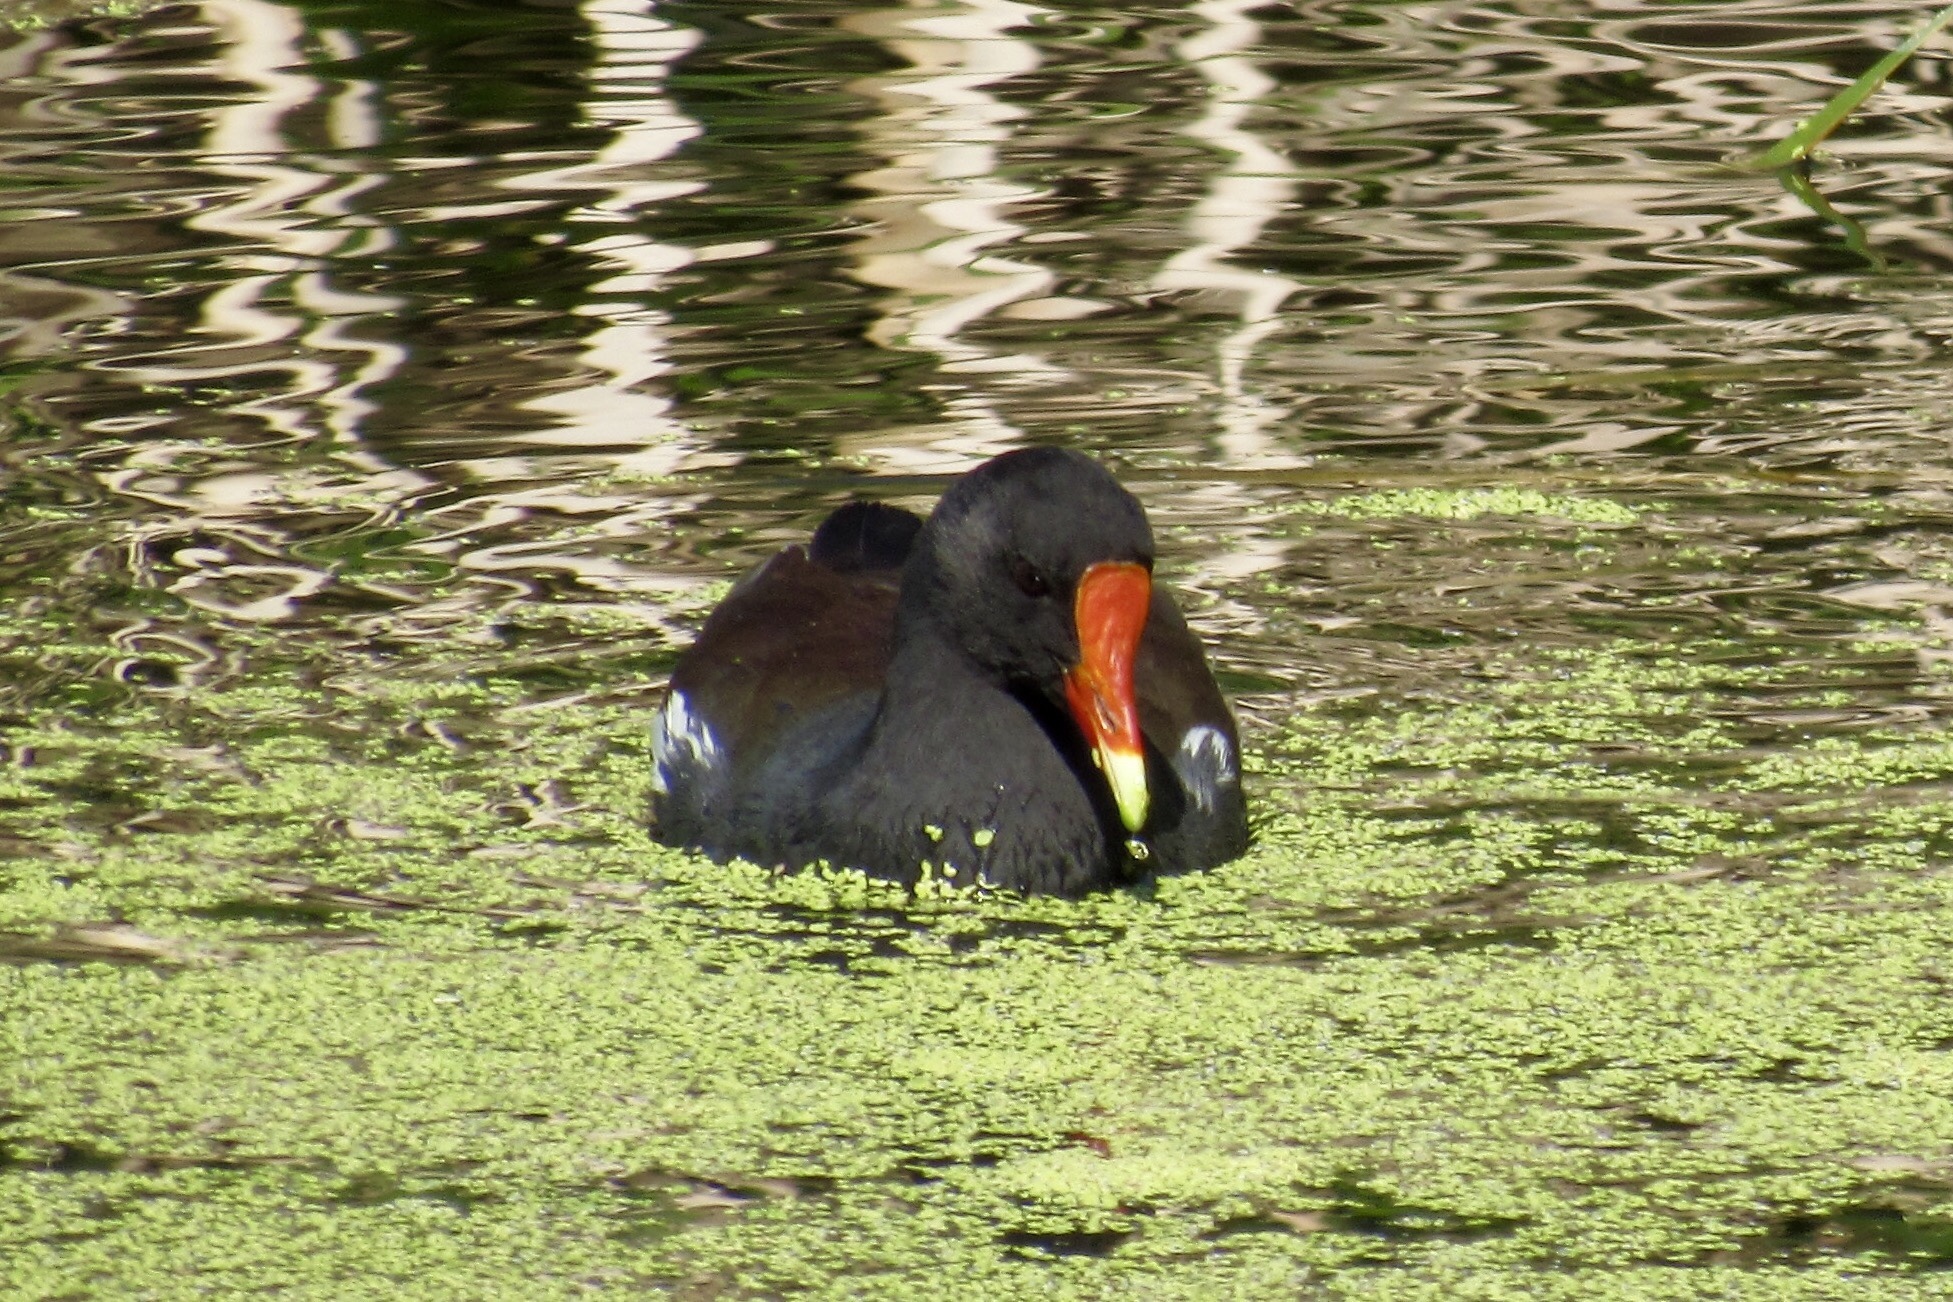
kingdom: Animalia
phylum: Chordata
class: Aves
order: Gruiformes
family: Rallidae
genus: Gallinula
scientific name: Gallinula chloropus
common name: Common moorhen
